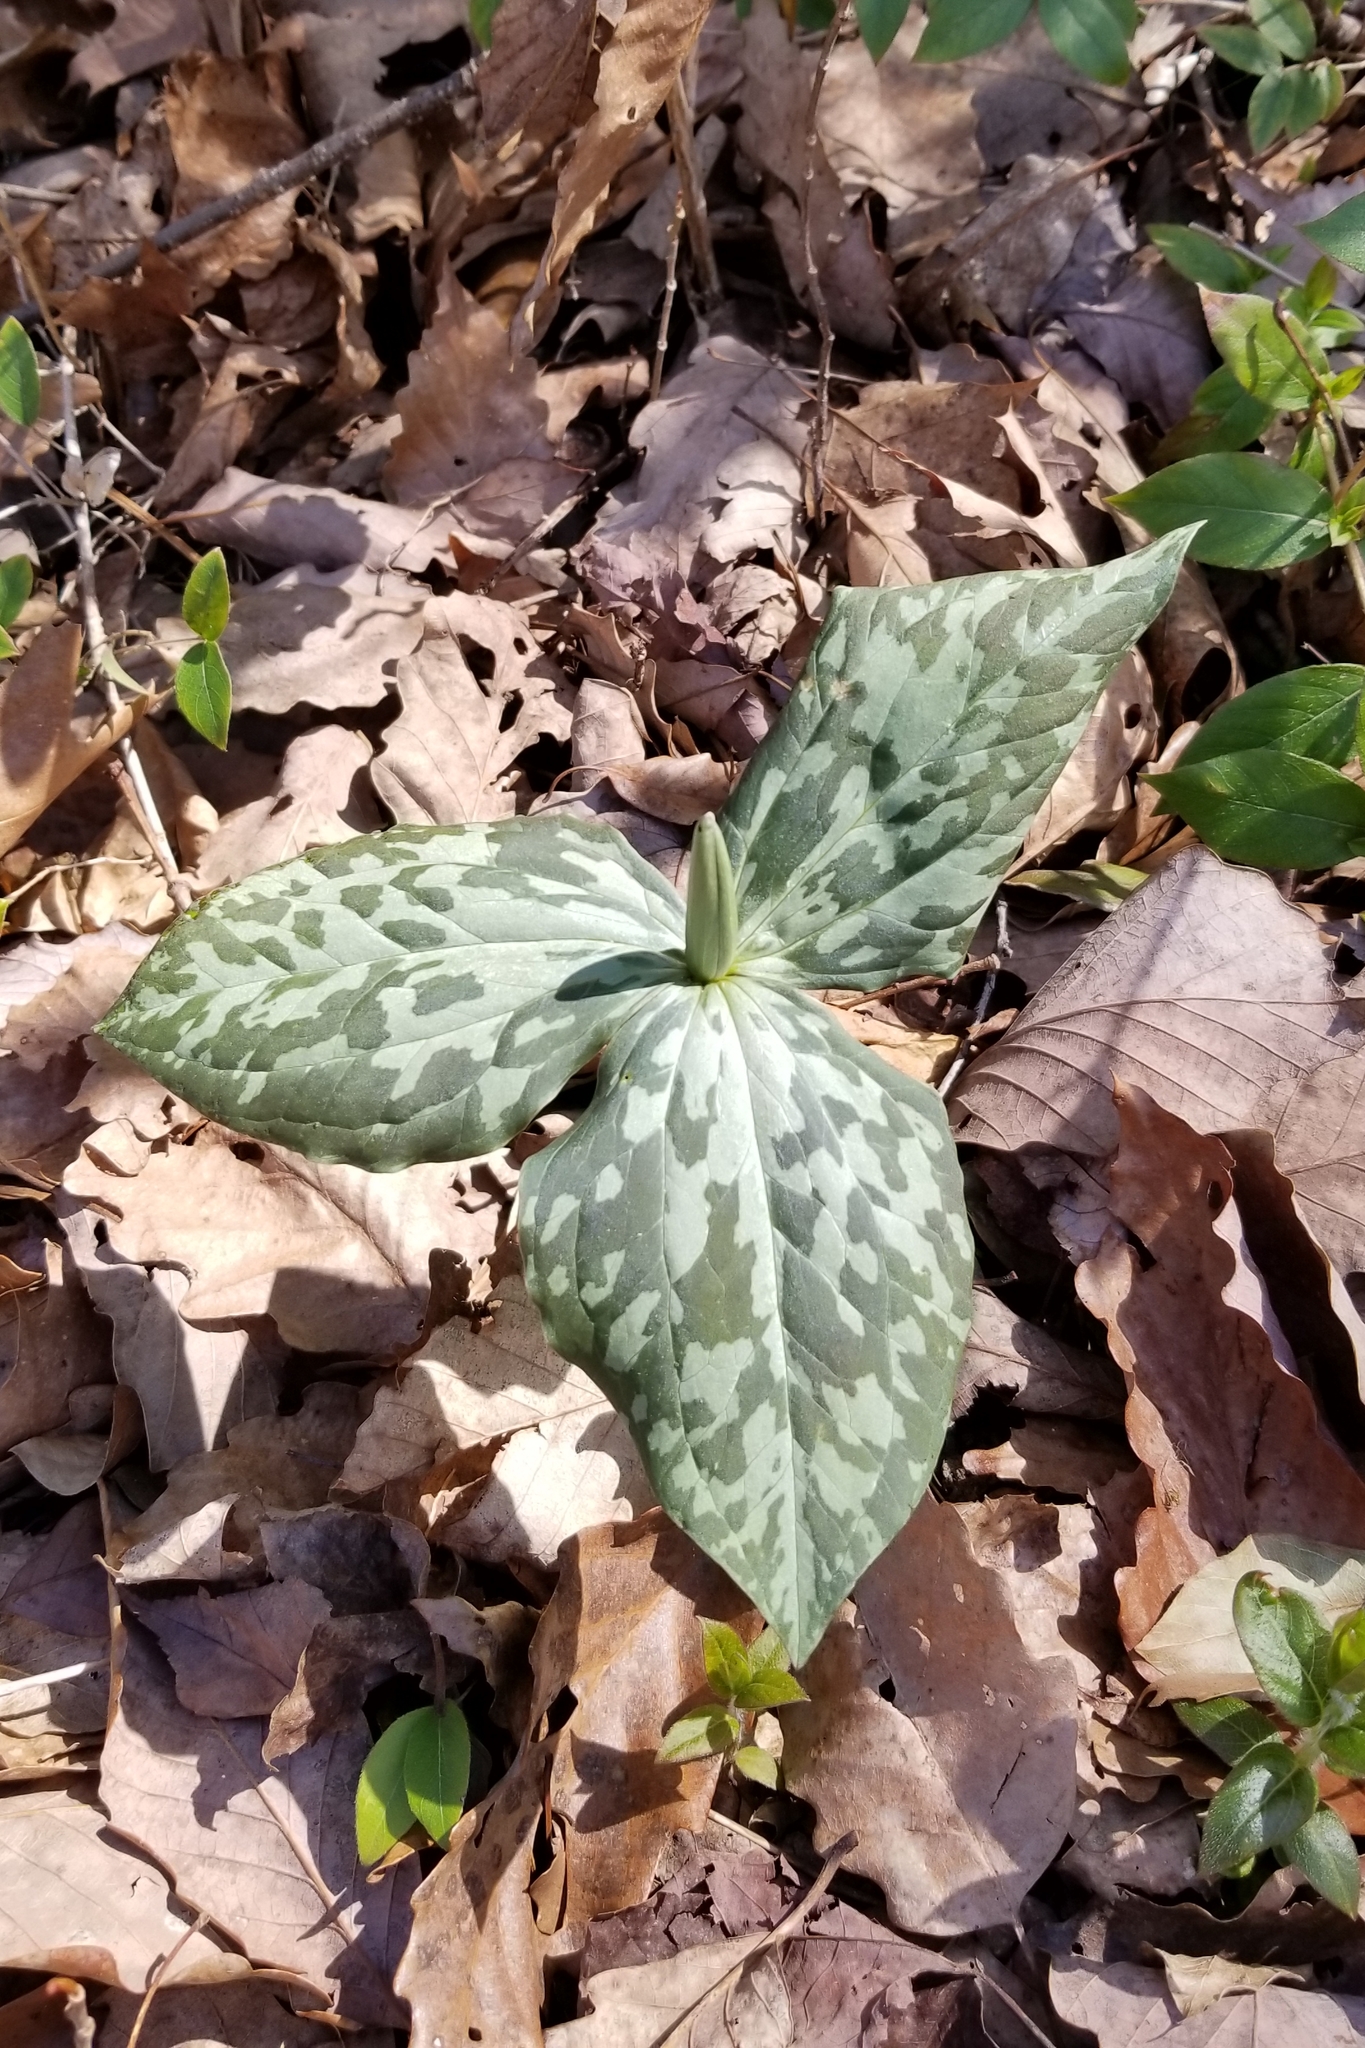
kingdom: Plantae
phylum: Tracheophyta
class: Liliopsida
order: Liliales
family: Melanthiaceae
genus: Trillium
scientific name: Trillium cuneatum
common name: Cuneate trillium
